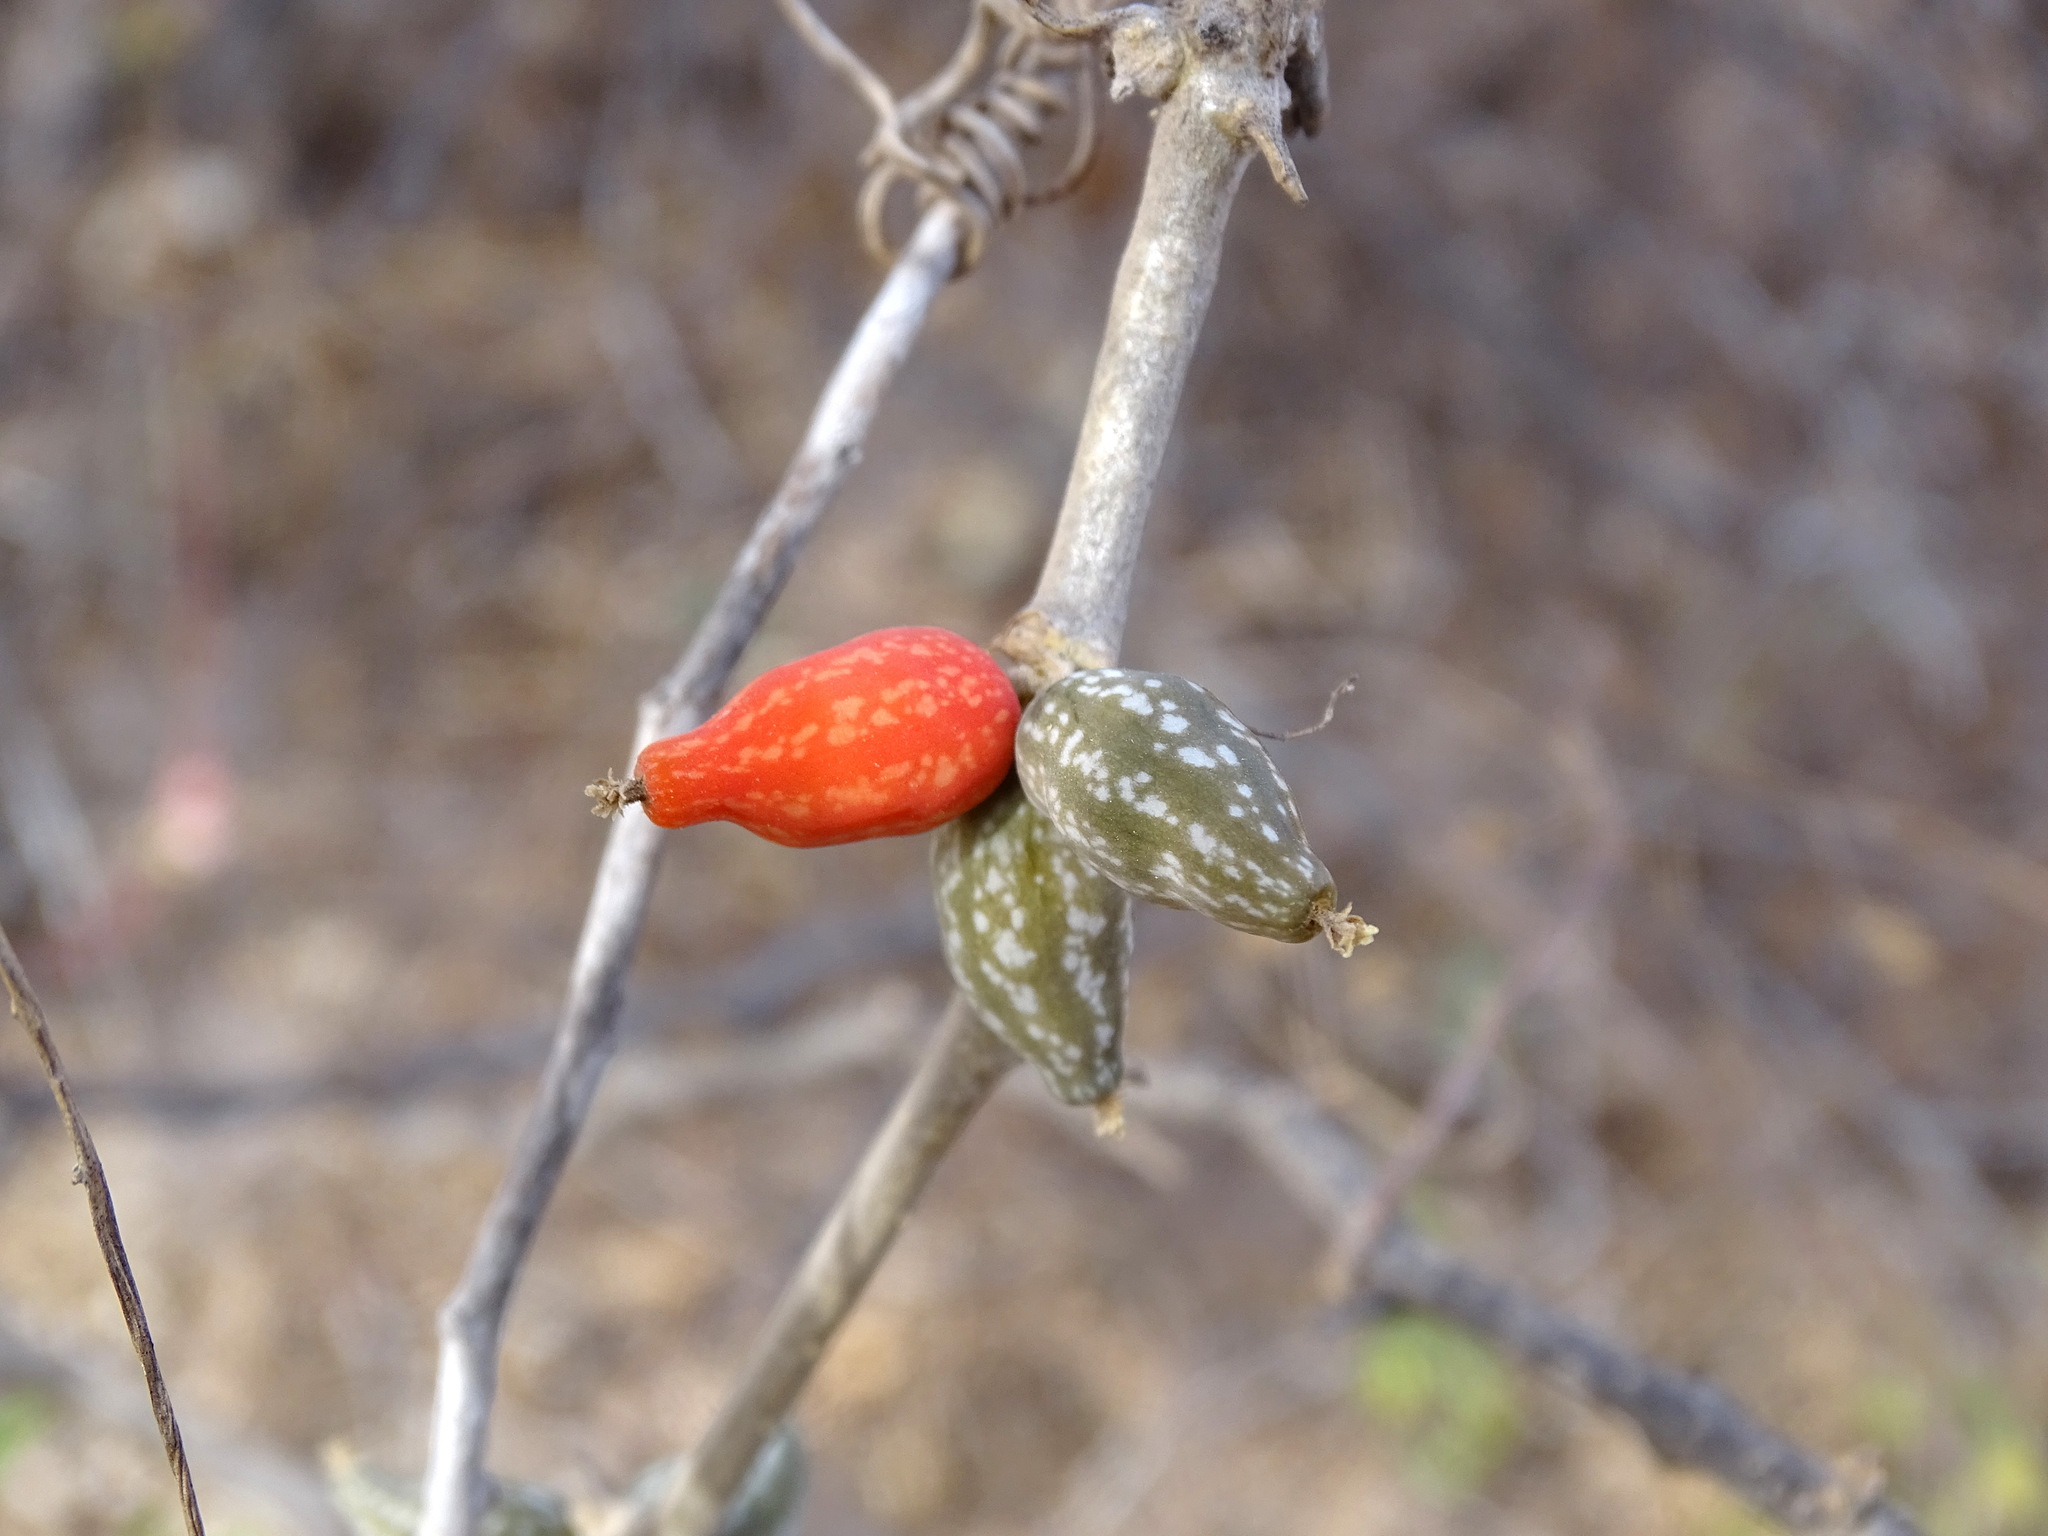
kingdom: Plantae
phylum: Tracheophyta
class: Magnoliopsida
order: Cucurbitales
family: Cucurbitaceae
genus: Doyerea
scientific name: Doyerea emetocathartica
